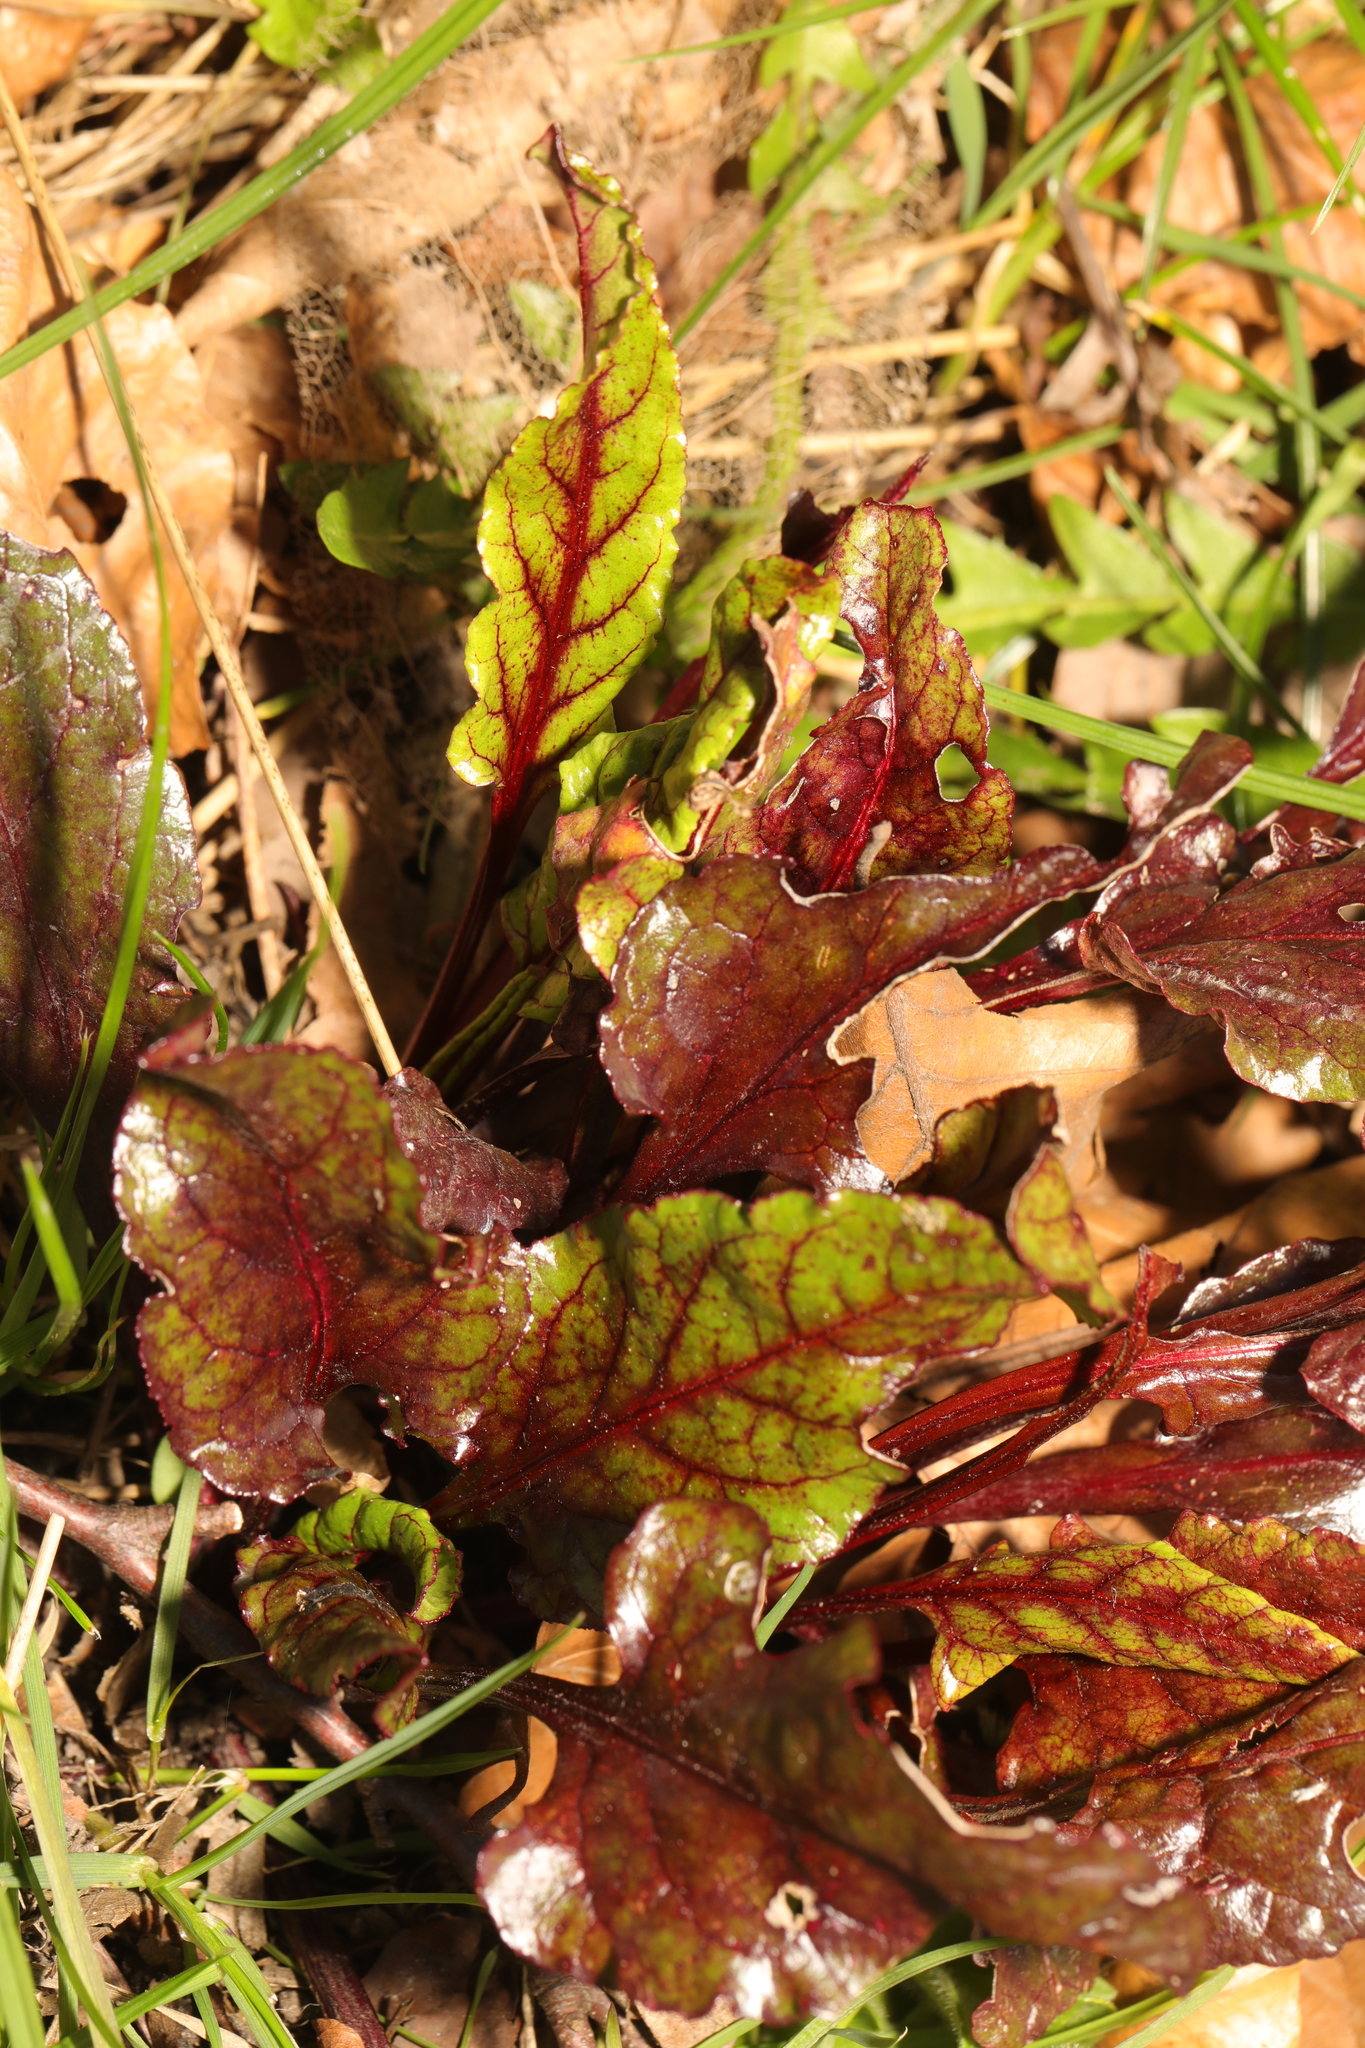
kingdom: Plantae
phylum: Tracheophyta
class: Magnoliopsida
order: Caryophyllales
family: Amaranthaceae
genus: Beta
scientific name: Beta vulgaris
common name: Beet
